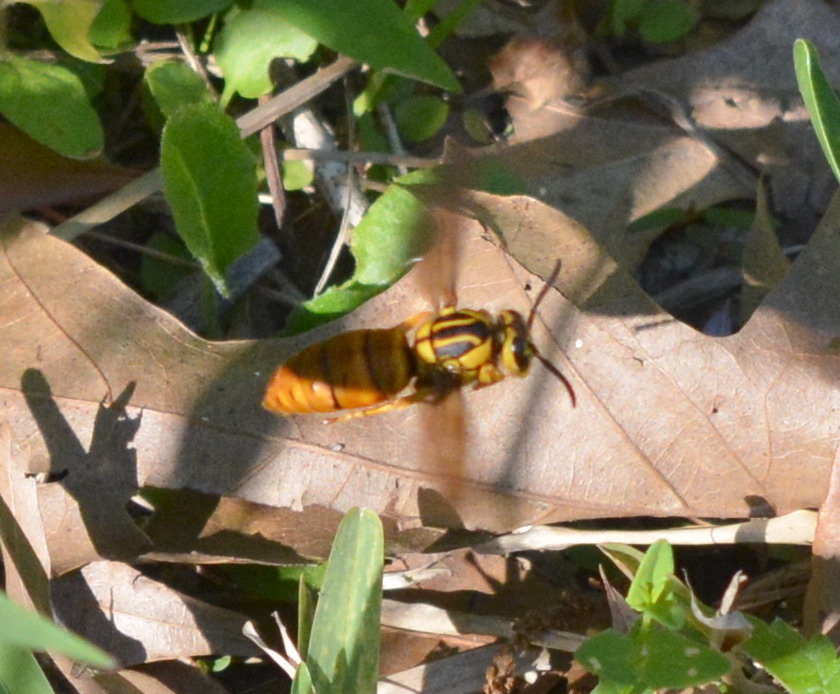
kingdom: Animalia
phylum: Arthropoda
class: Insecta
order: Hymenoptera
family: Vespidae
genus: Vespula
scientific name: Vespula squamosa
